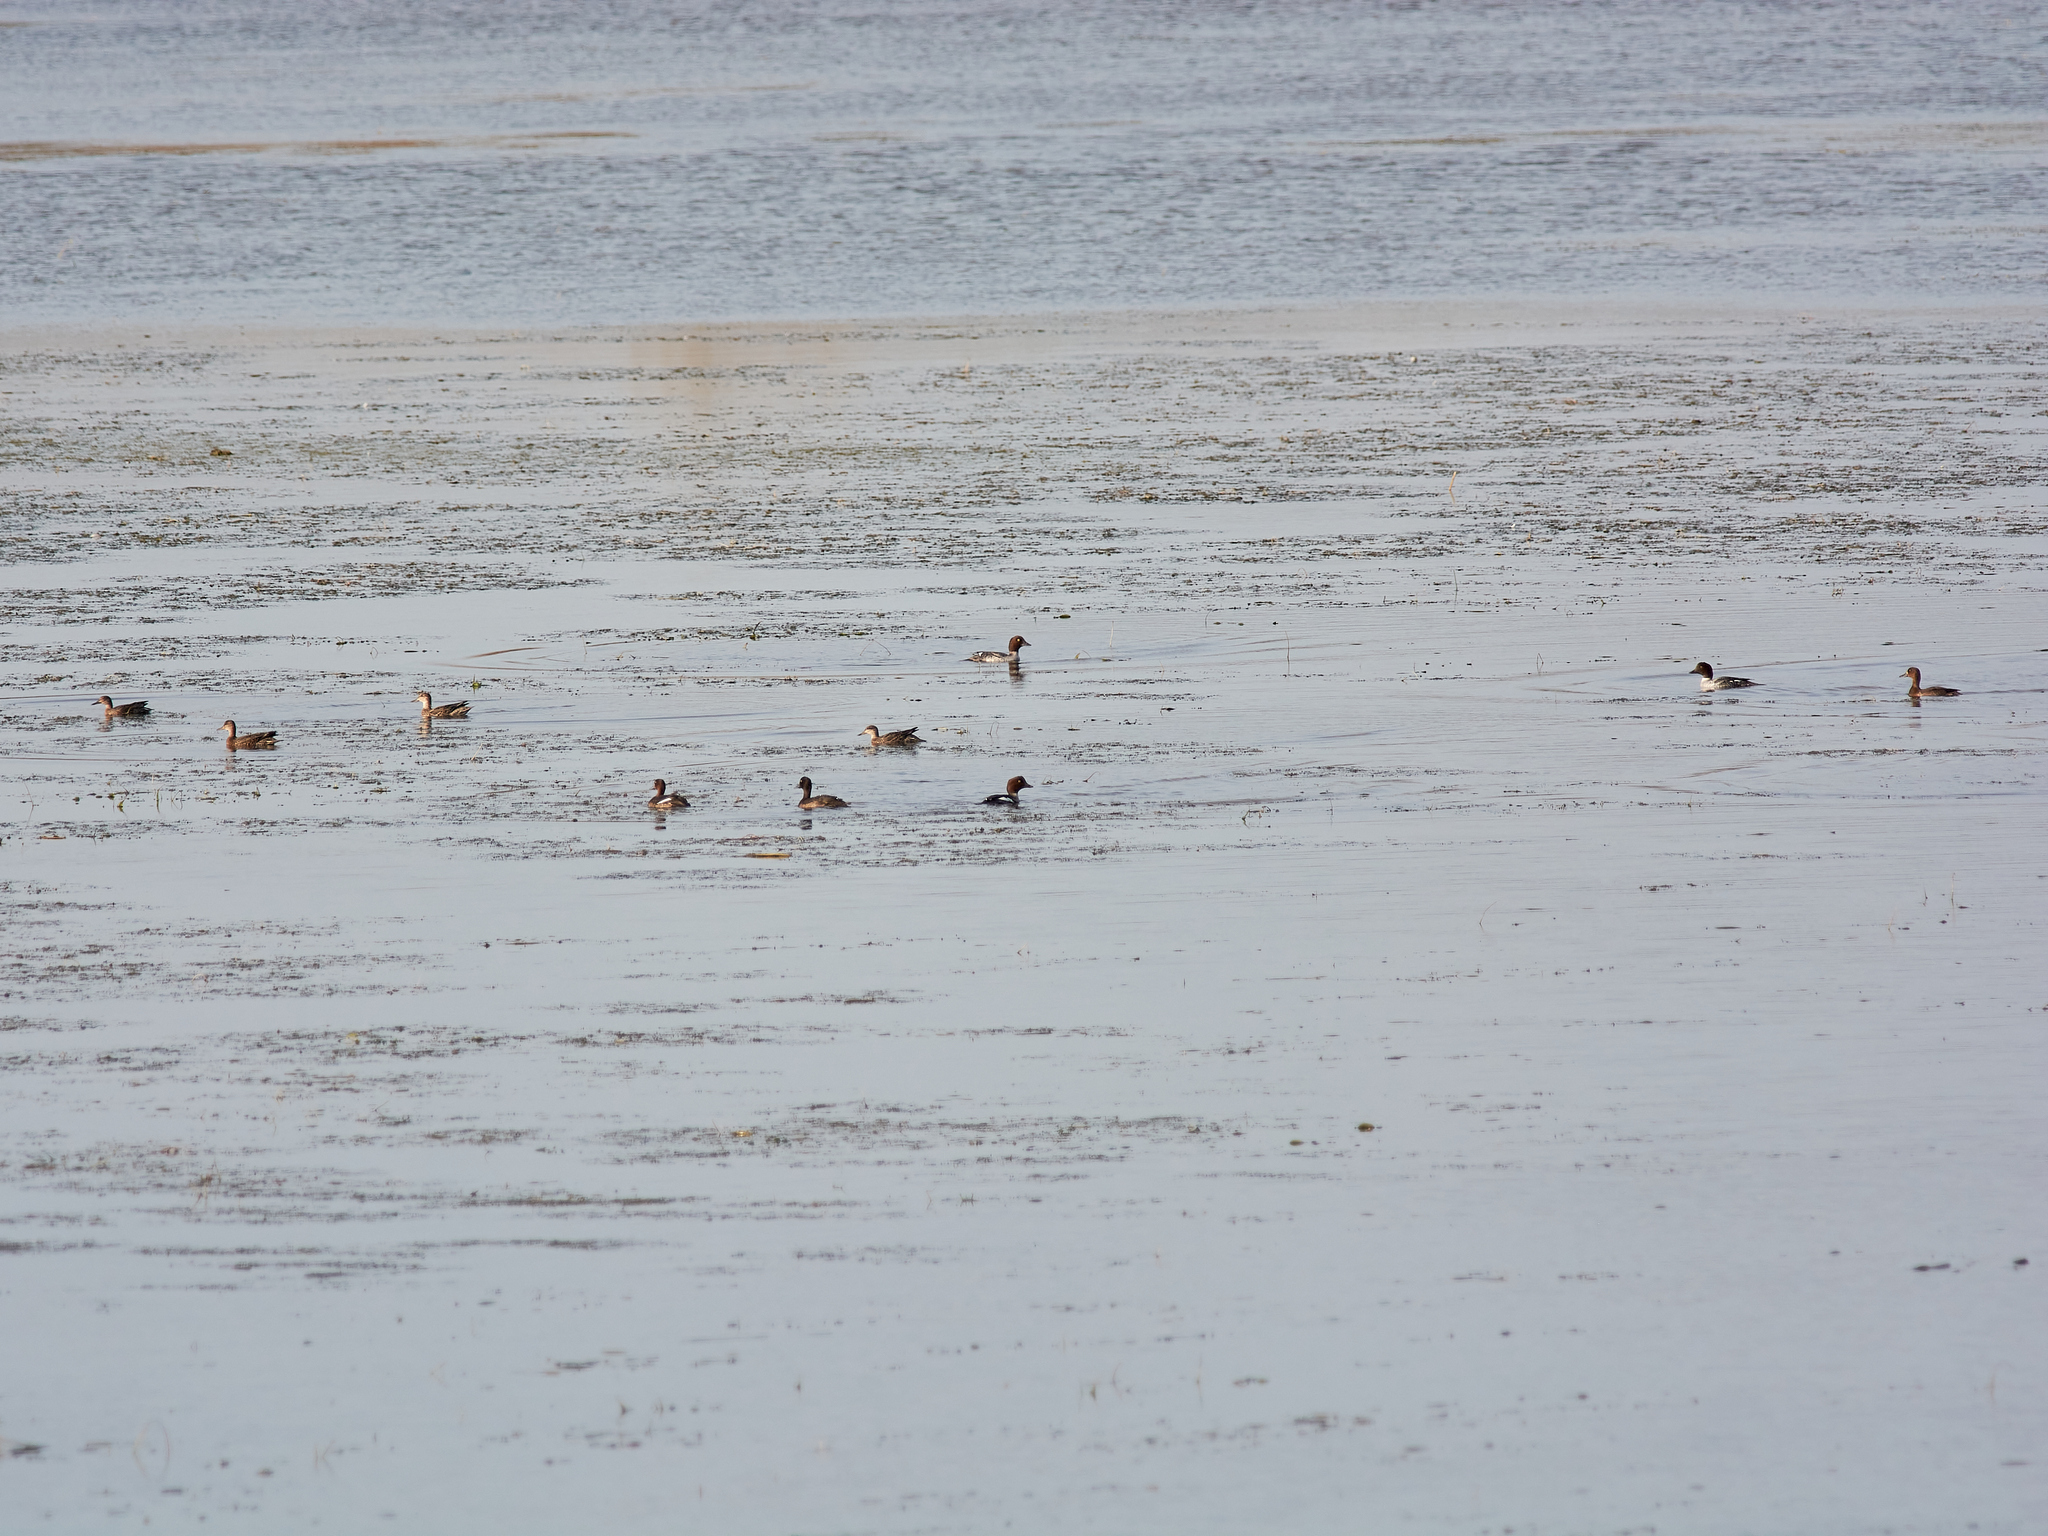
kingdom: Animalia
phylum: Chordata
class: Aves
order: Anseriformes
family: Anatidae
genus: Aythya
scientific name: Aythya fuligula
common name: Tufted duck
